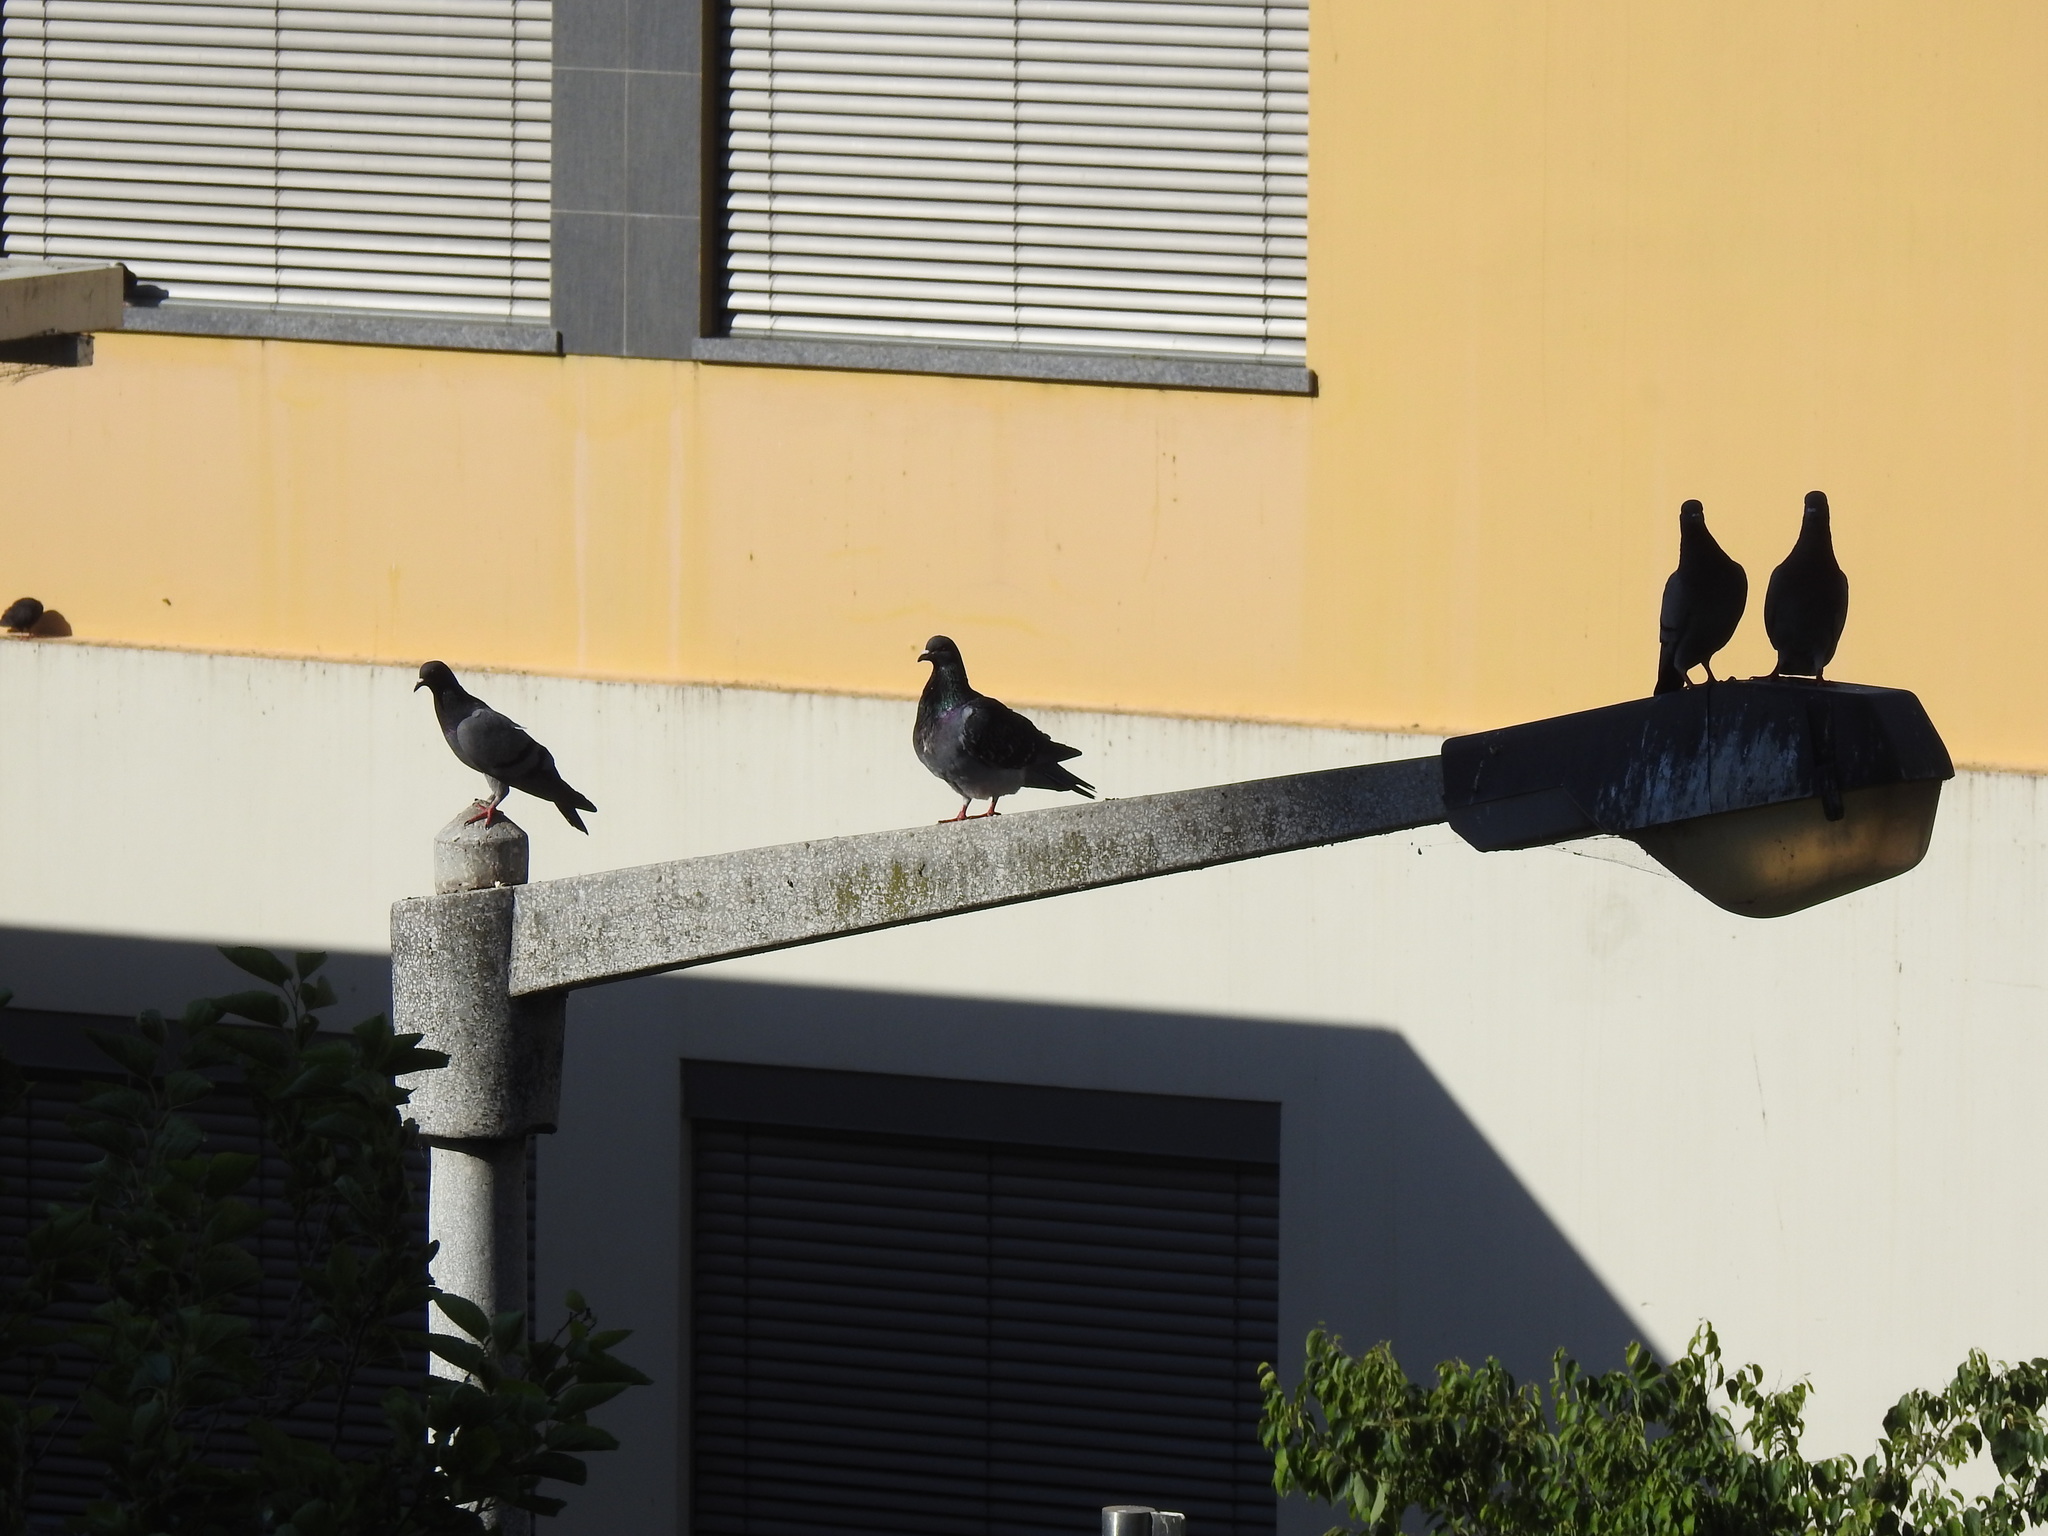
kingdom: Animalia
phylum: Chordata
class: Aves
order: Columbiformes
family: Columbidae
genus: Columba
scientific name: Columba livia
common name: Rock pigeon
